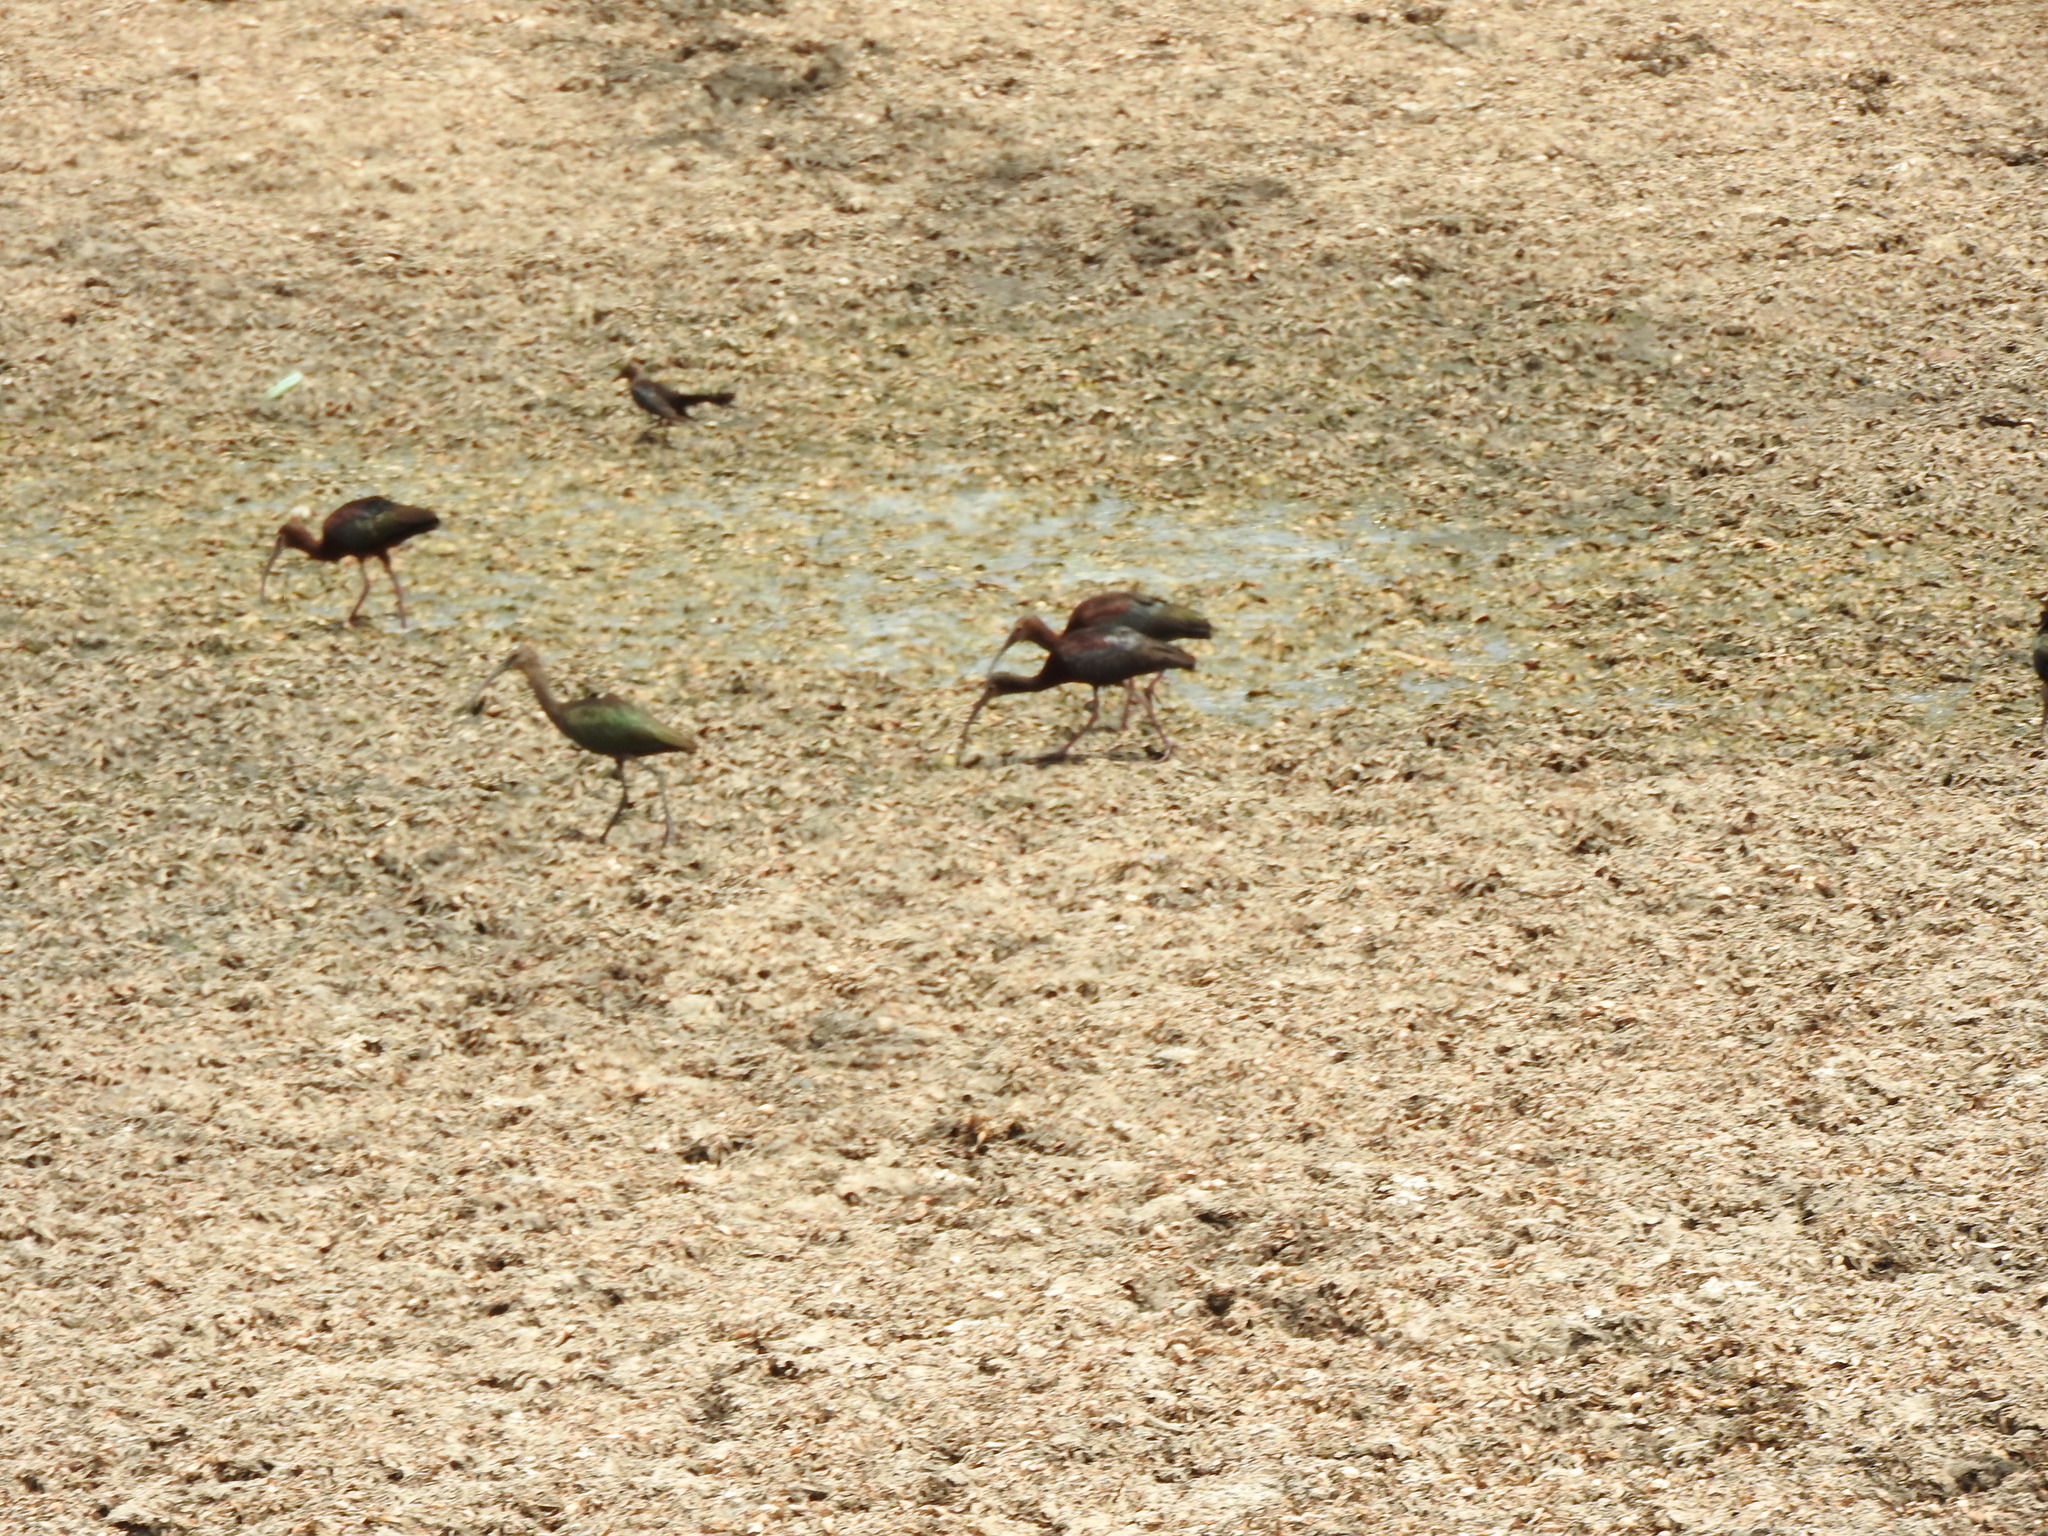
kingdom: Animalia
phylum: Chordata
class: Aves
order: Pelecaniformes
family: Threskiornithidae
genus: Plegadis
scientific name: Plegadis chihi
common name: White-faced ibis
